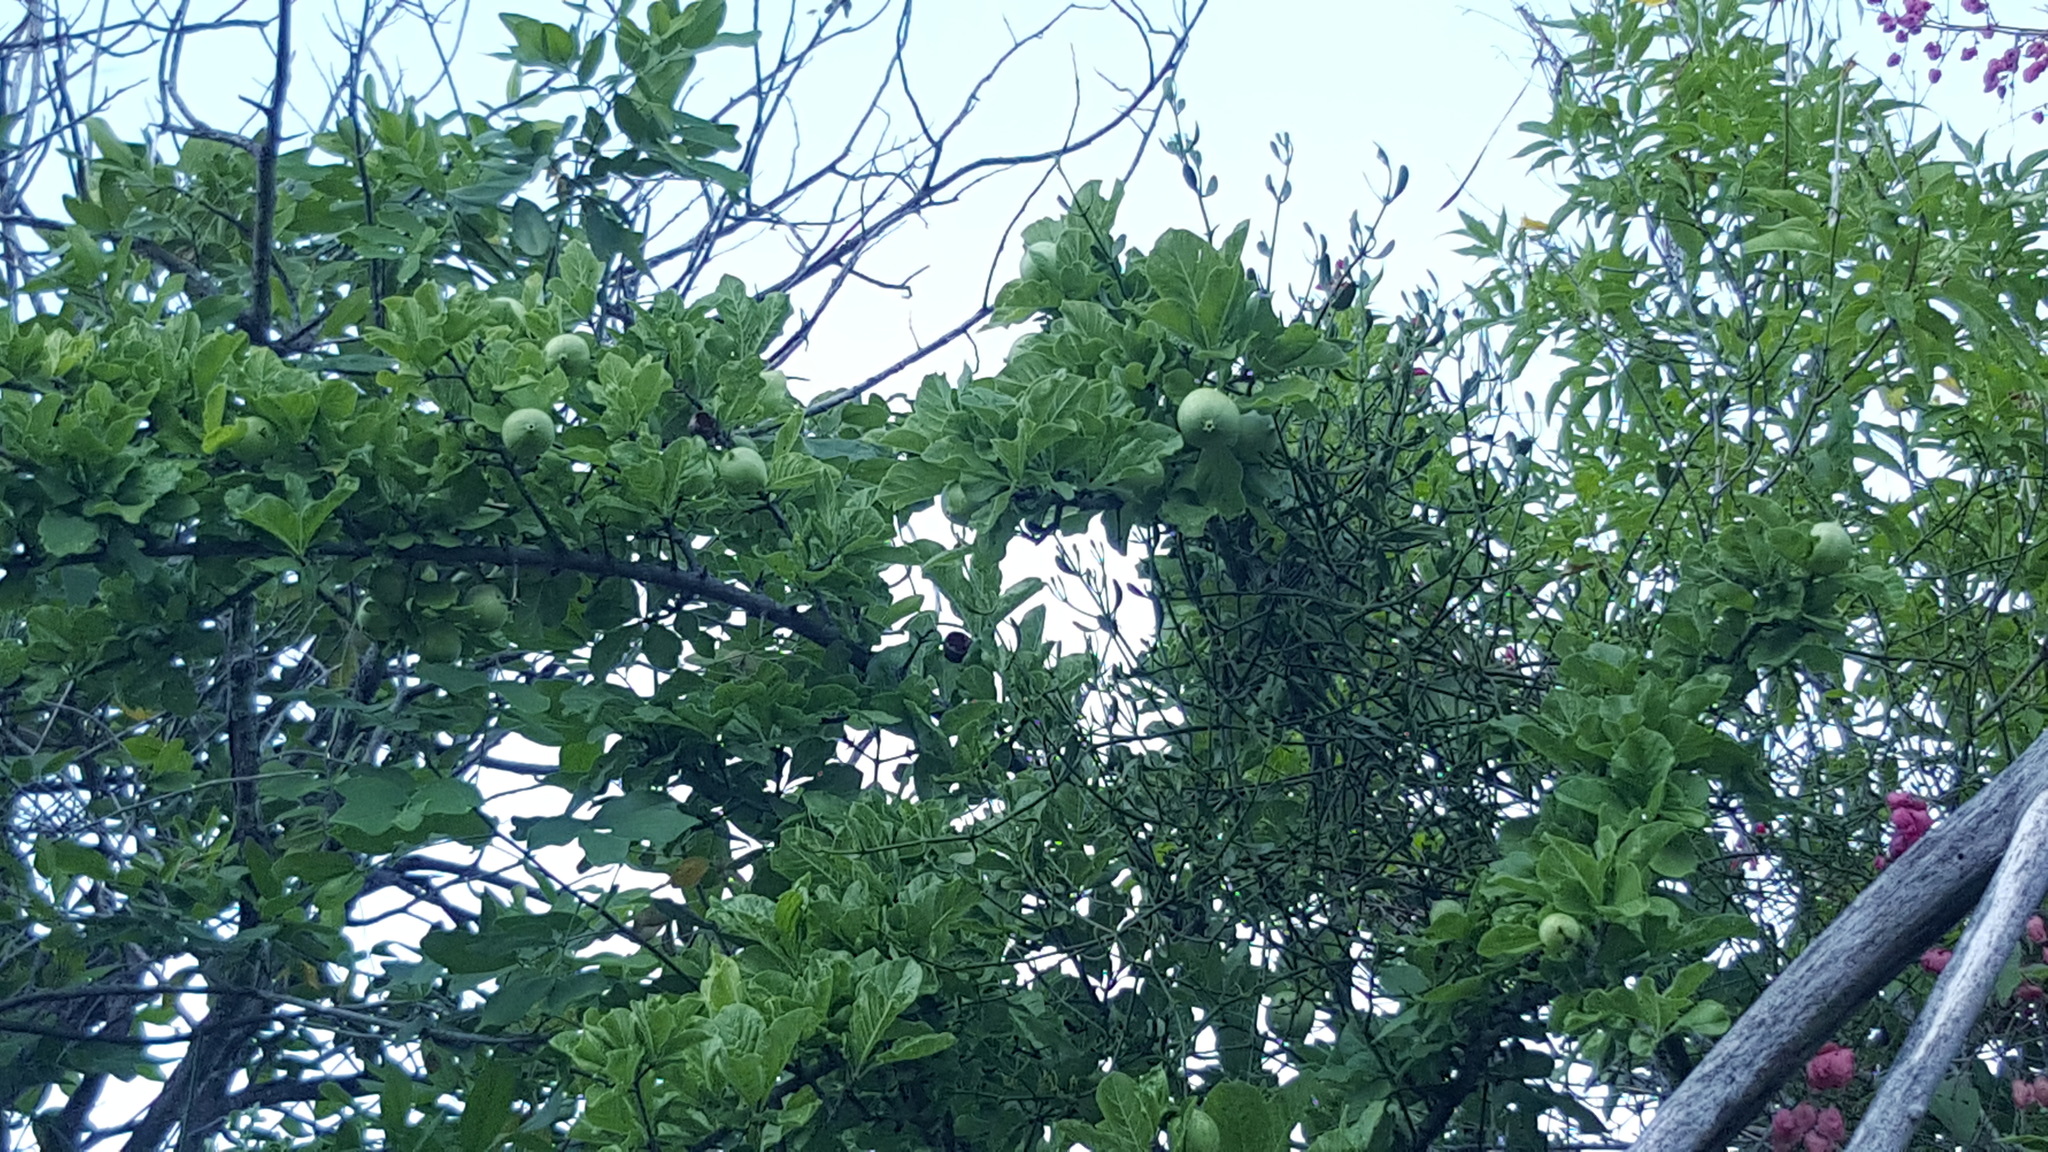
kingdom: Plantae
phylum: Tracheophyta
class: Magnoliopsida
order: Gentianales
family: Rubiaceae
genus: Randia
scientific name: Randia capitata
